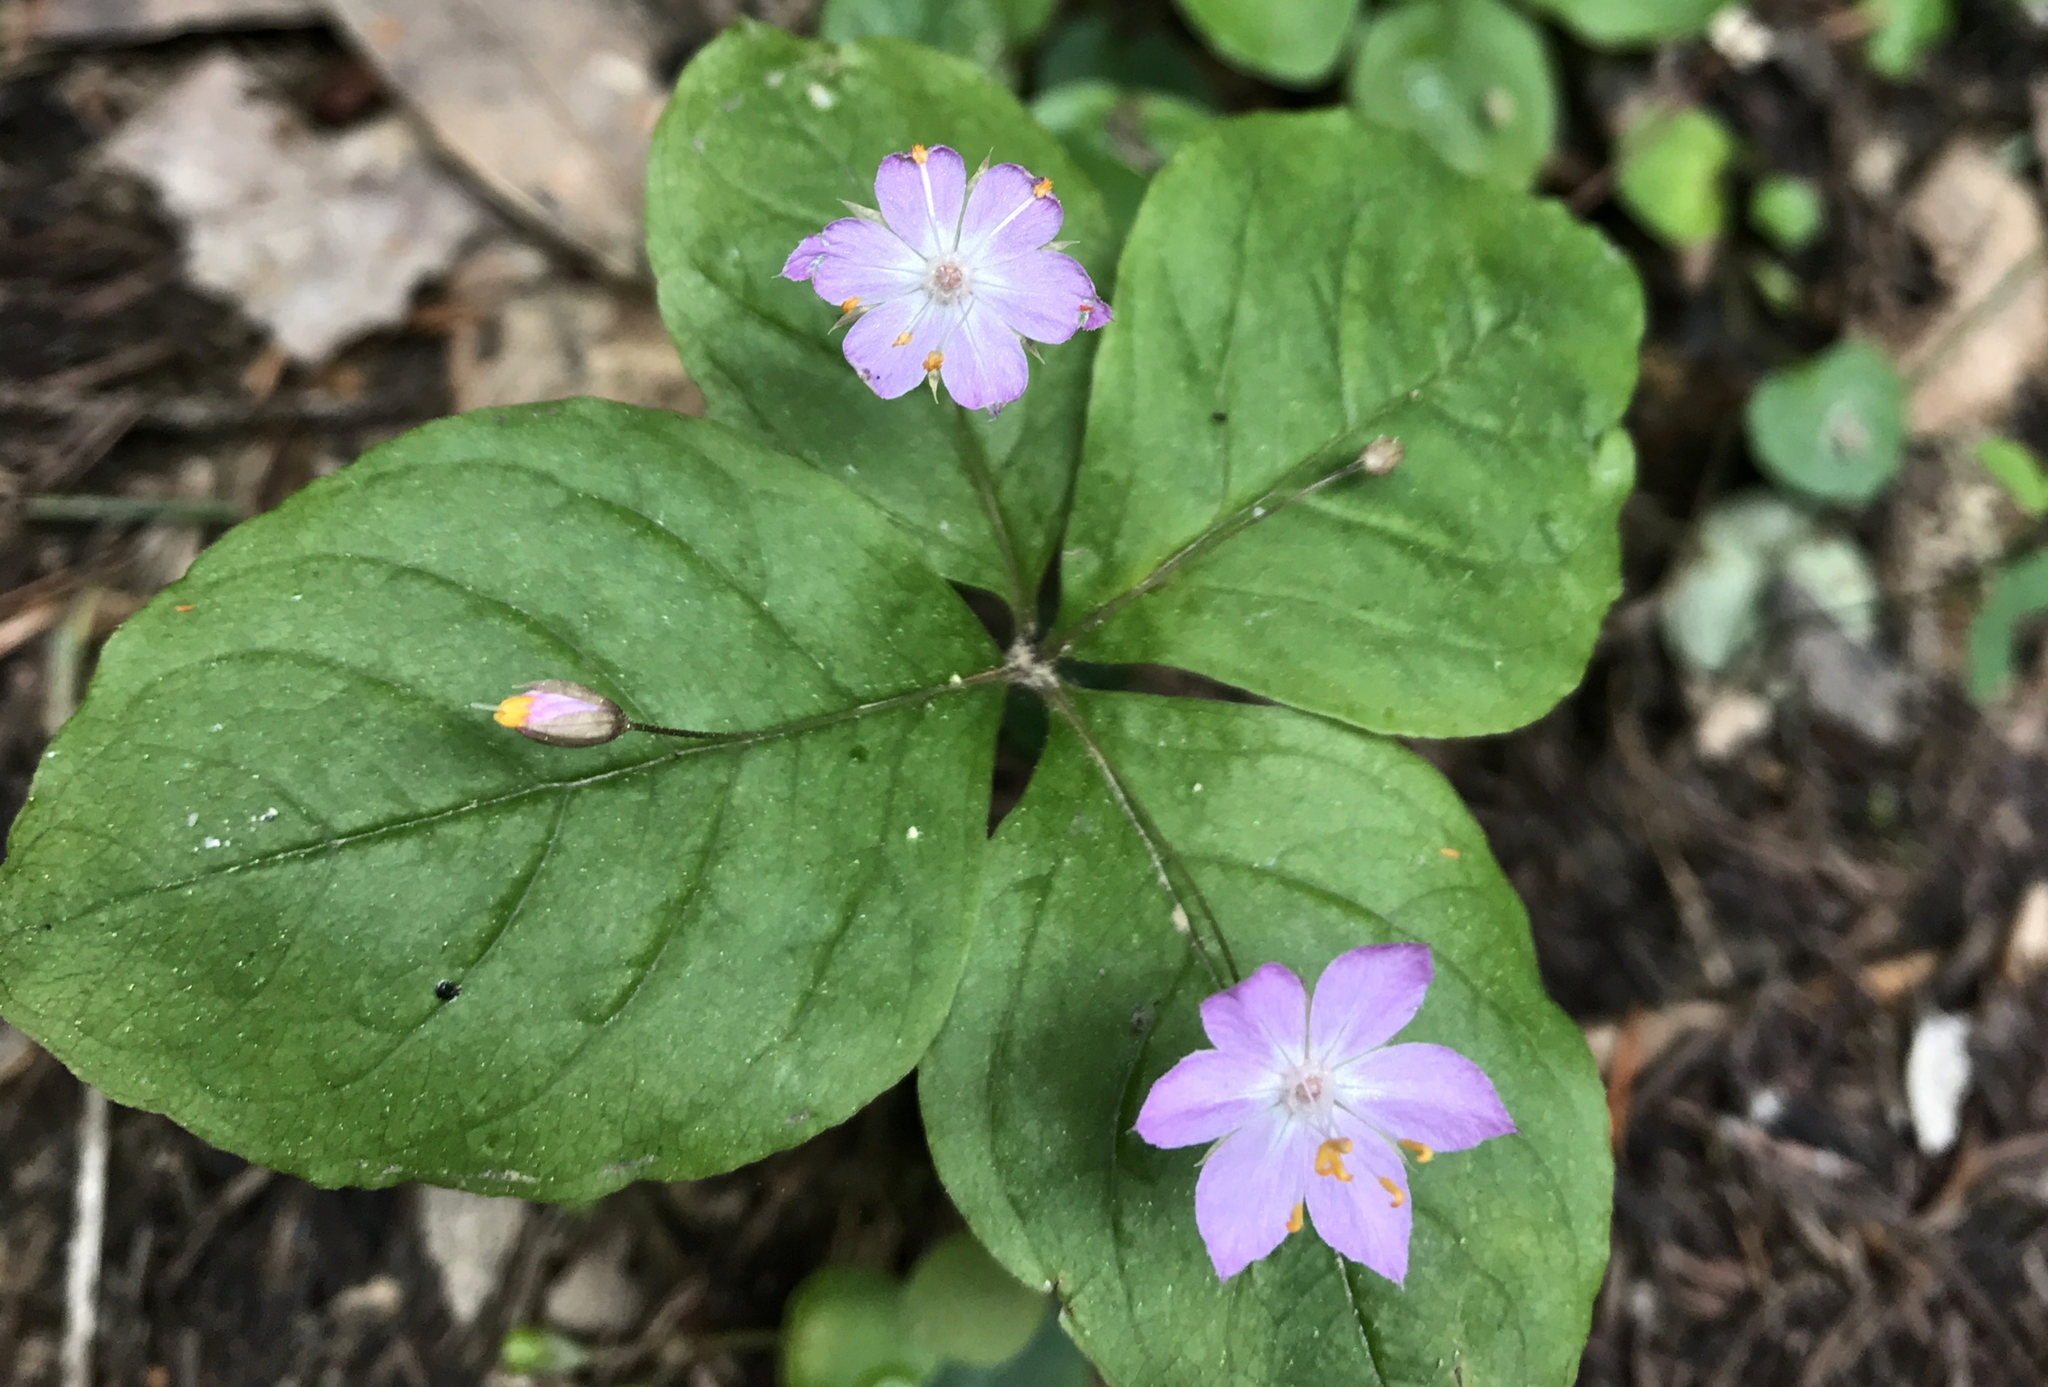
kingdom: Plantae
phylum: Tracheophyta
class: Magnoliopsida
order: Ericales
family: Primulaceae
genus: Lysimachia
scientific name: Lysimachia latifolia
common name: Pacific starflower
